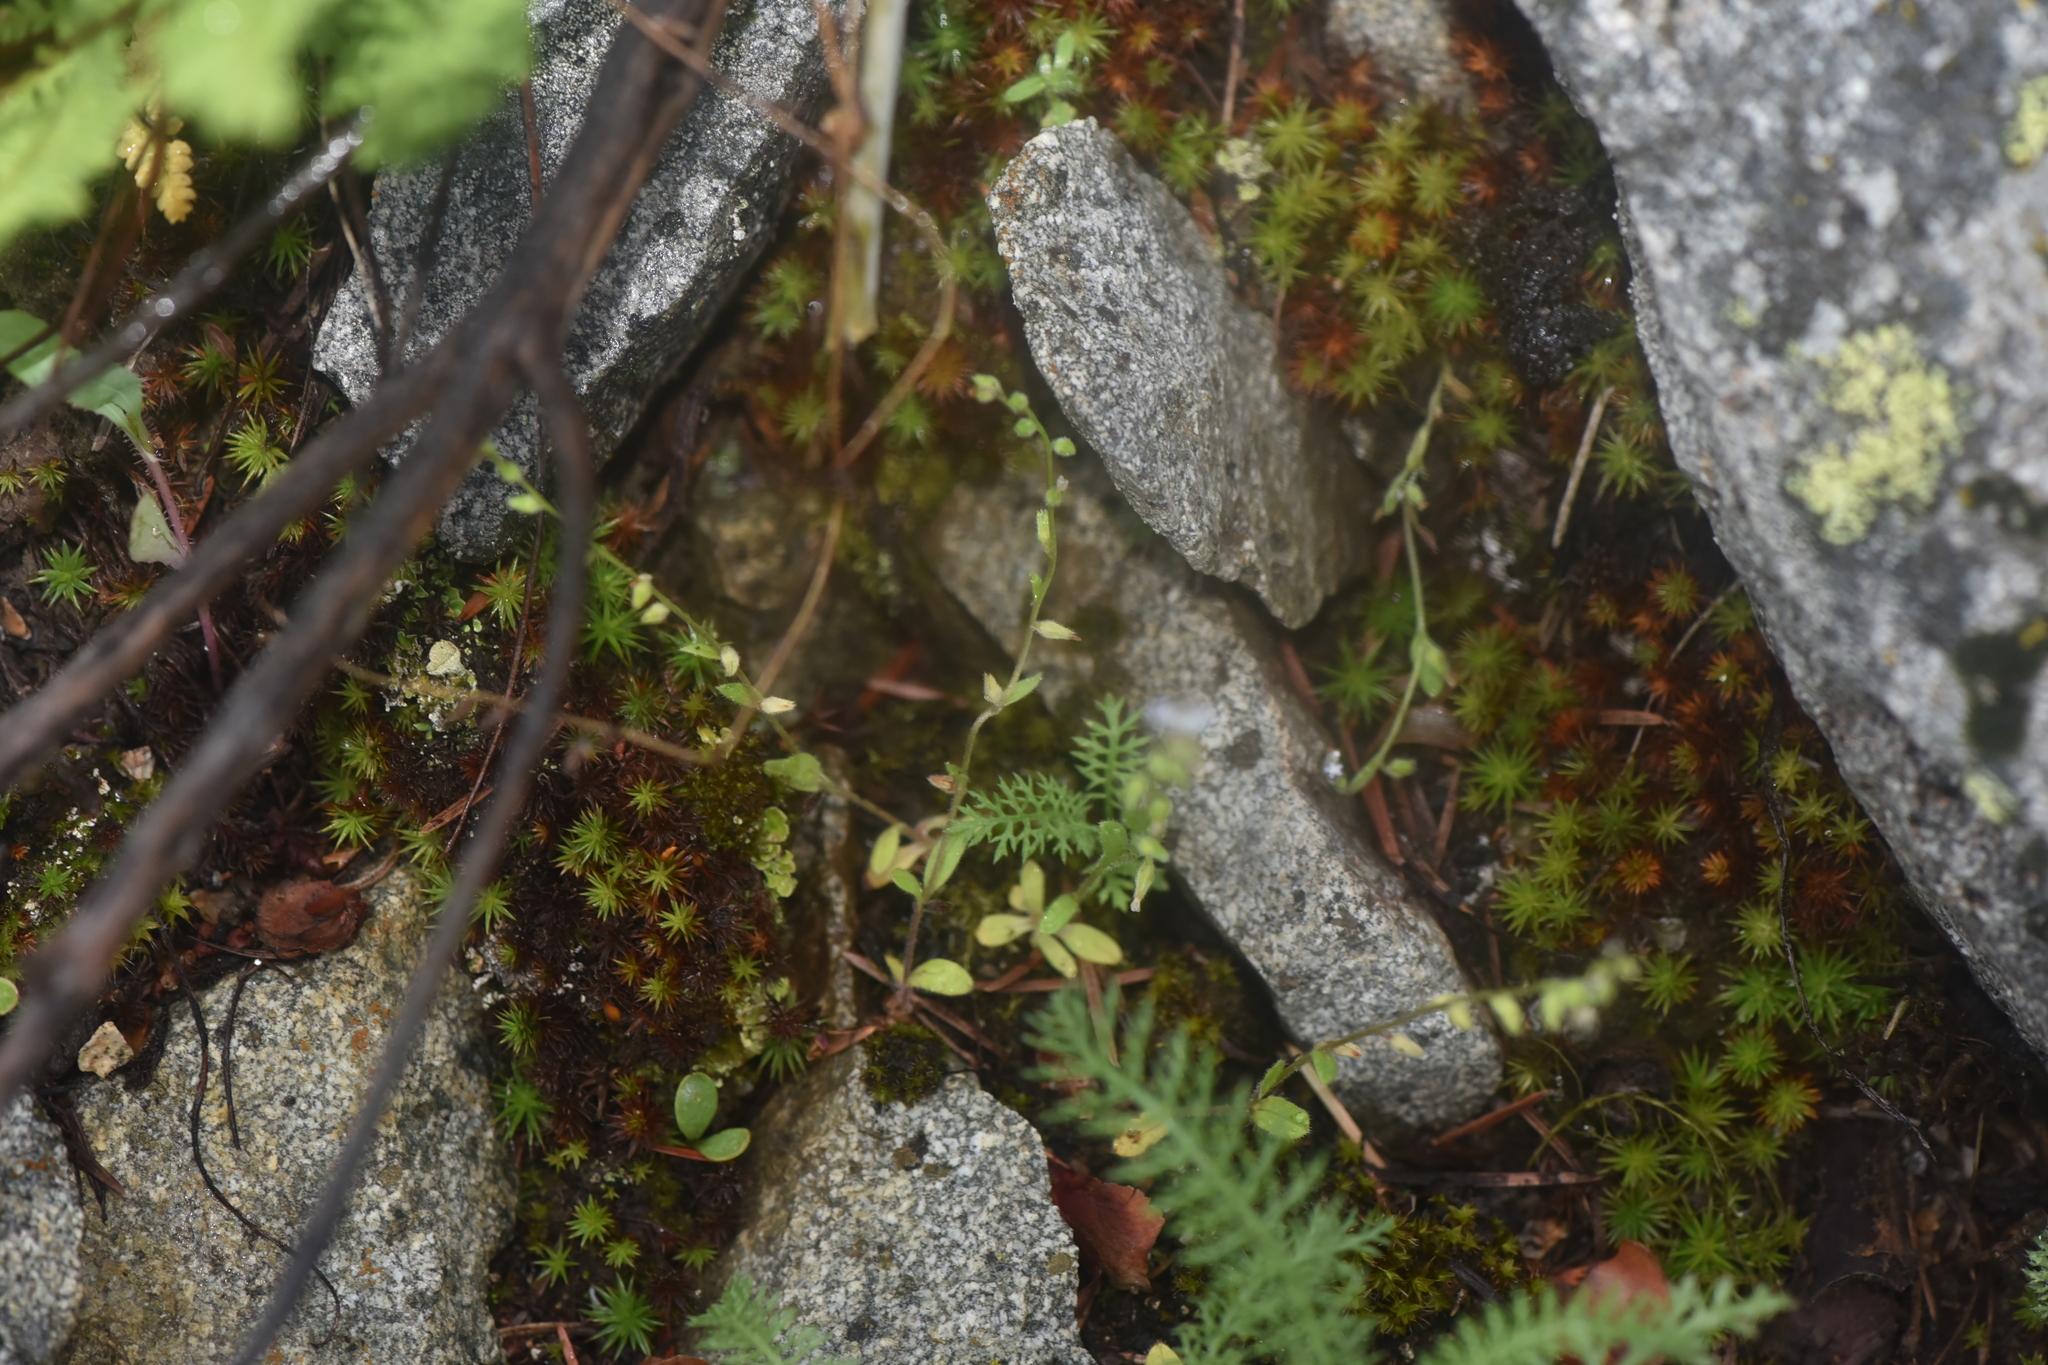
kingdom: Plantae
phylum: Tracheophyta
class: Magnoliopsida
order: Asterales
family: Asteraceae
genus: Achillea
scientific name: Achillea millefolium
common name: Yarrow
